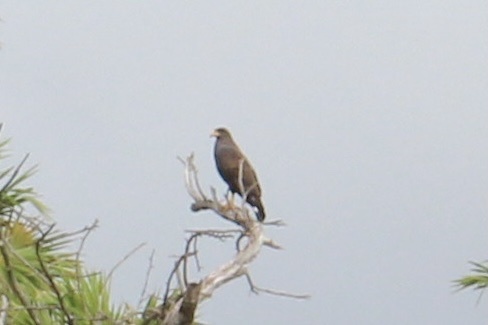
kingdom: Animalia
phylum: Chordata
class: Aves
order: Accipitriformes
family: Accipitridae
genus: Buteogallus
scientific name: Buteogallus gundlachii
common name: Cuban black hawk
